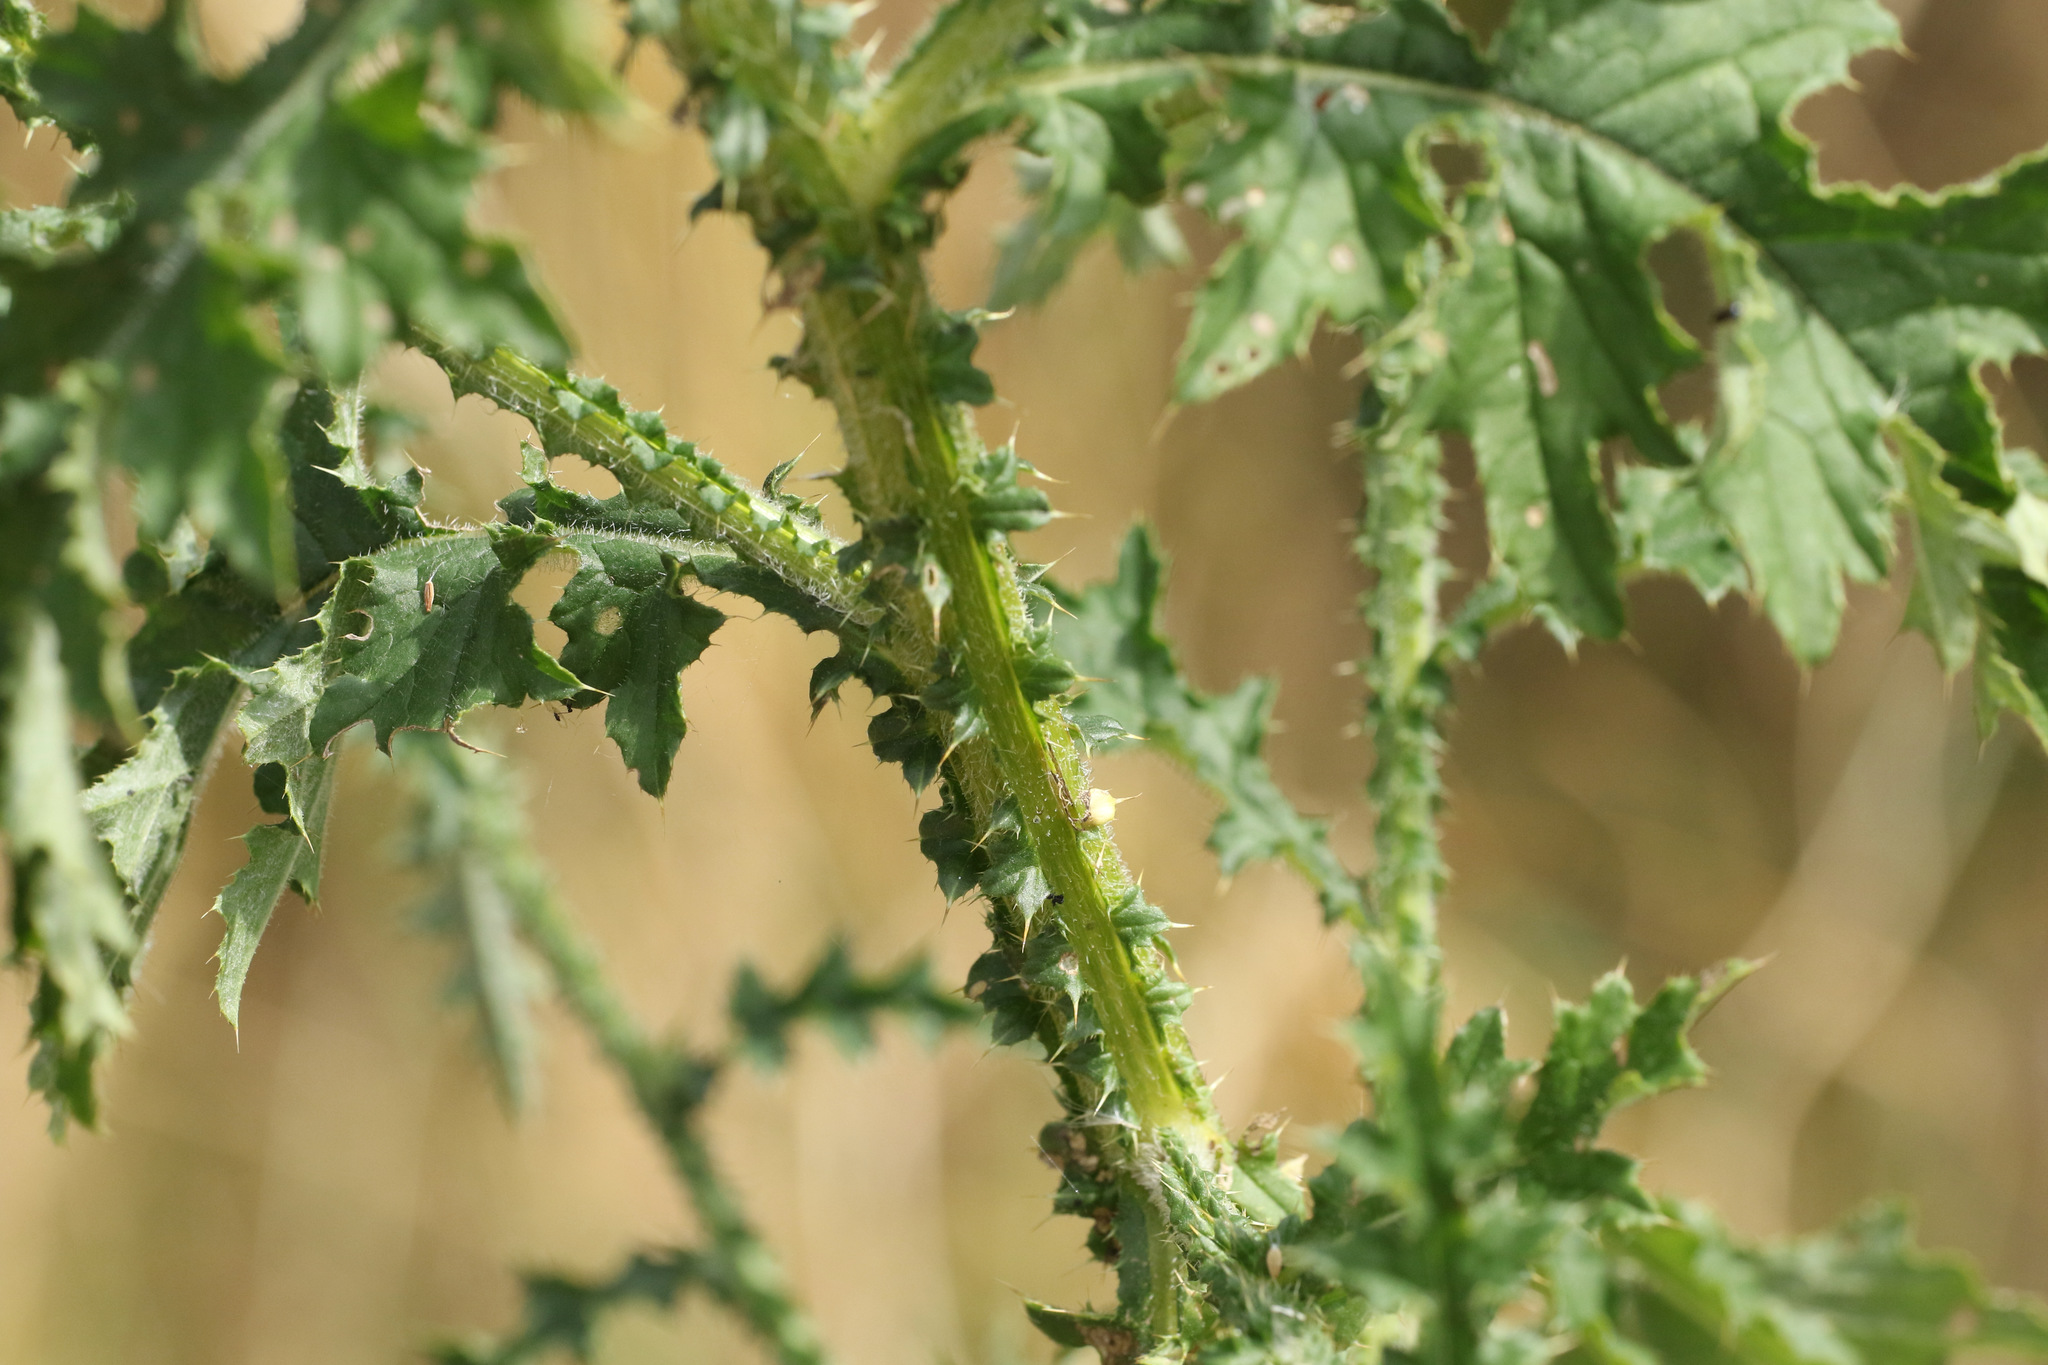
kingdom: Plantae
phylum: Tracheophyta
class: Magnoliopsida
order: Asterales
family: Asteraceae
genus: Carduus
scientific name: Carduus crispus
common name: Welted thistle
